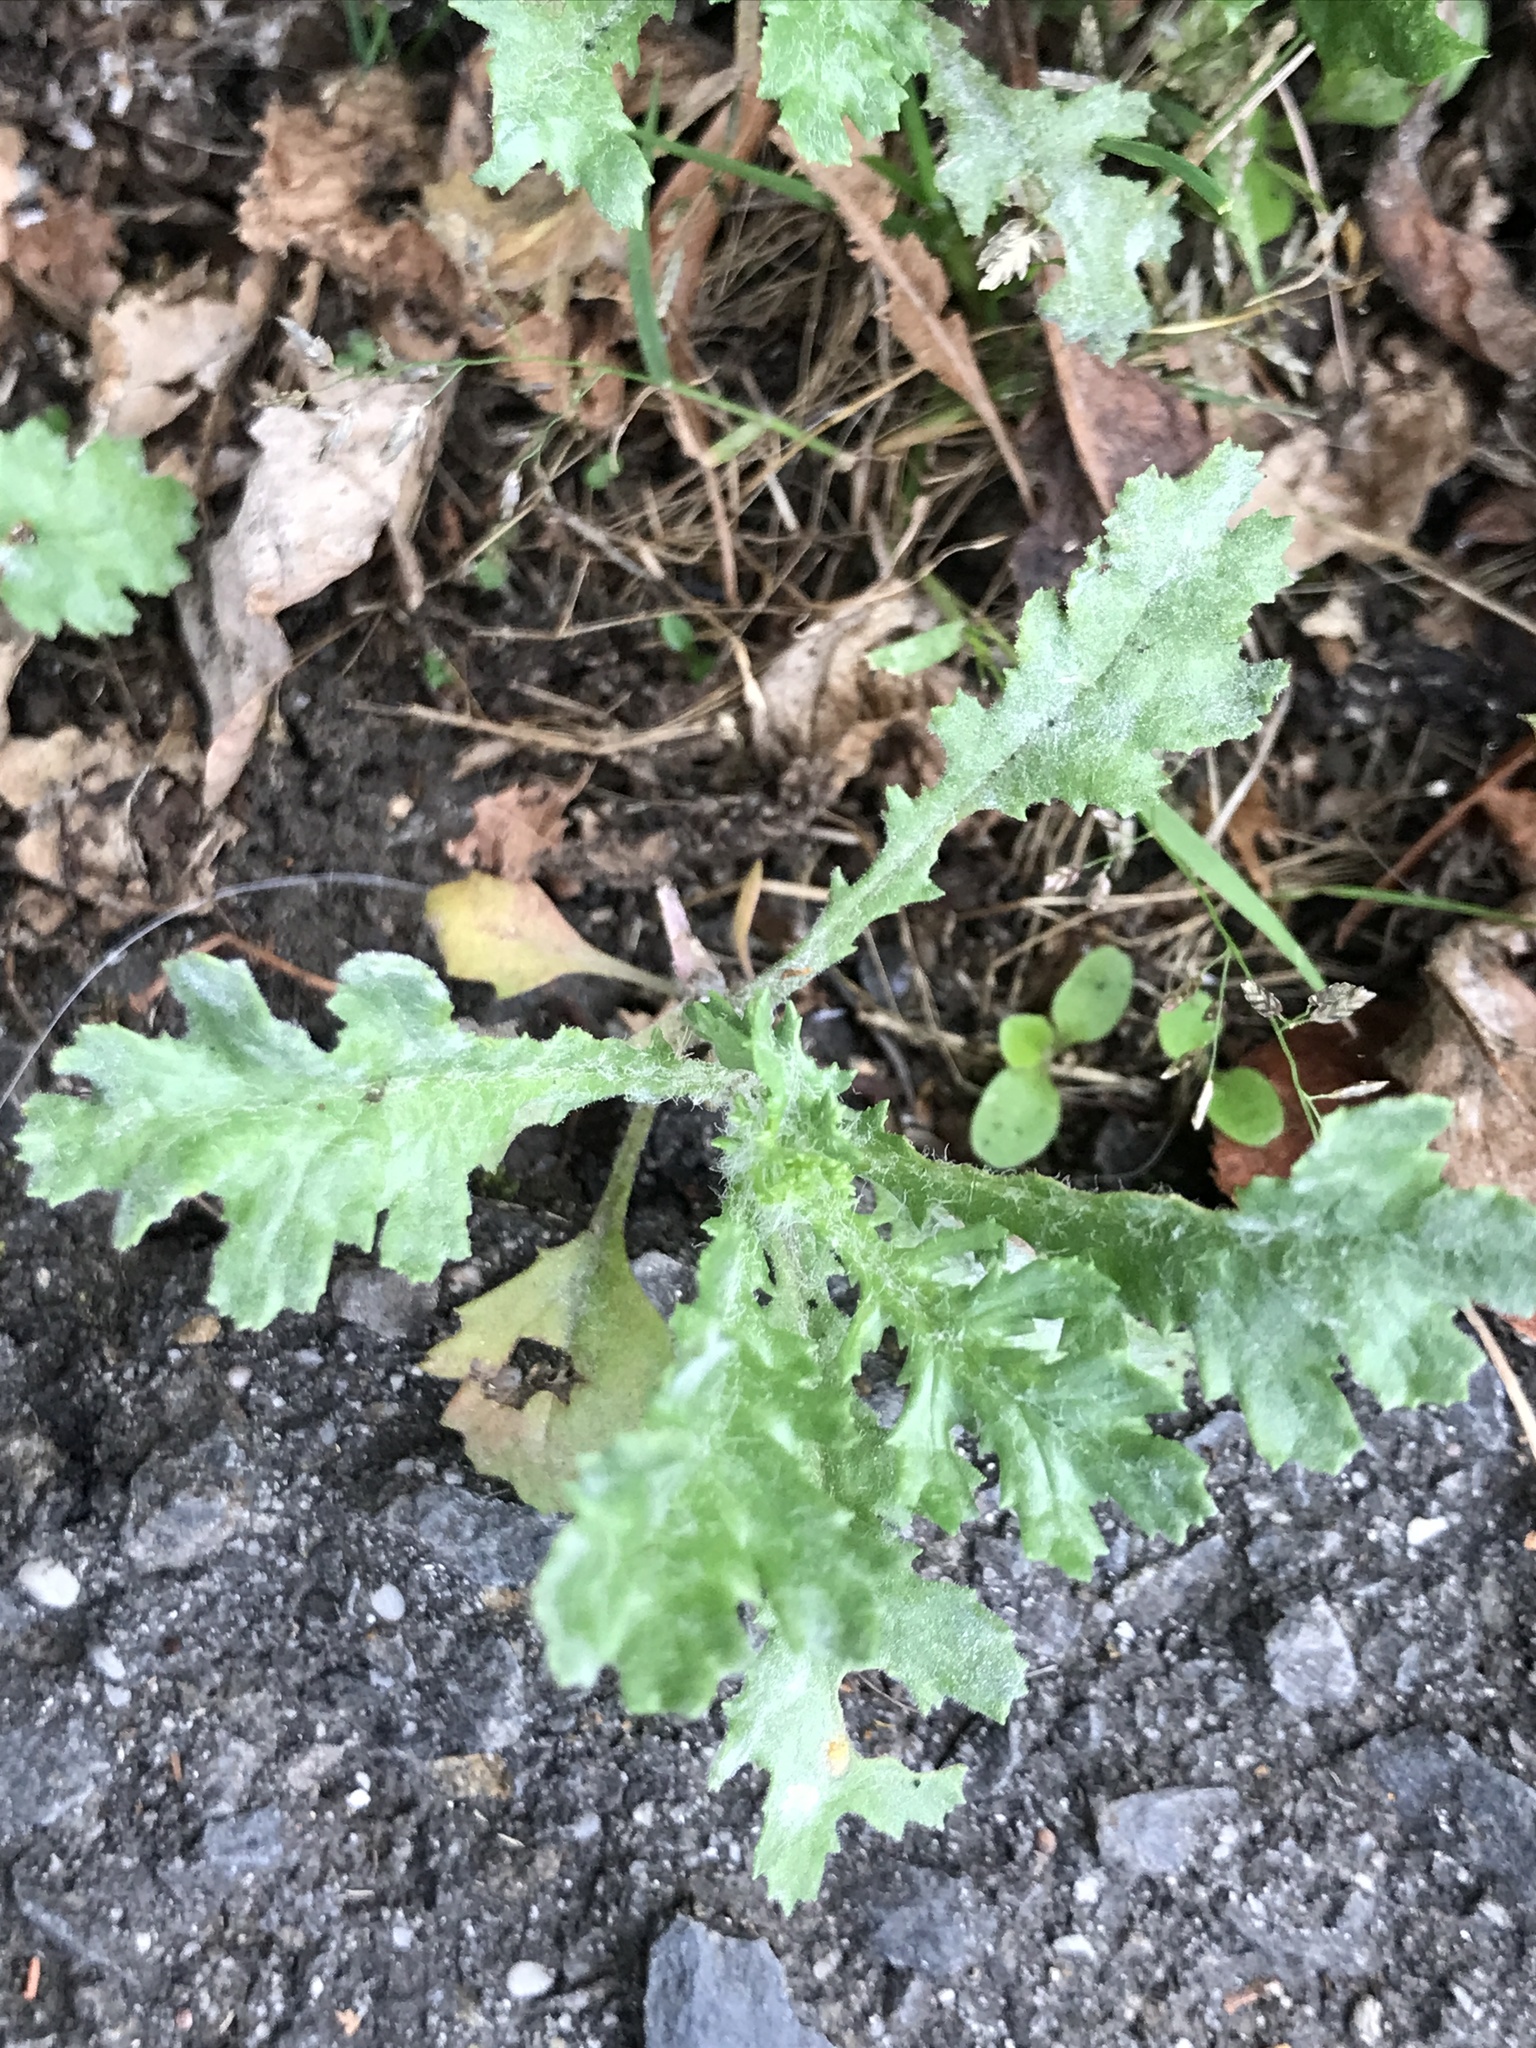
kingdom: Plantae
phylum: Tracheophyta
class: Magnoliopsida
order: Asterales
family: Asteraceae
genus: Senecio
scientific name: Senecio vulgaris
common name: Old-man-in-the-spring
